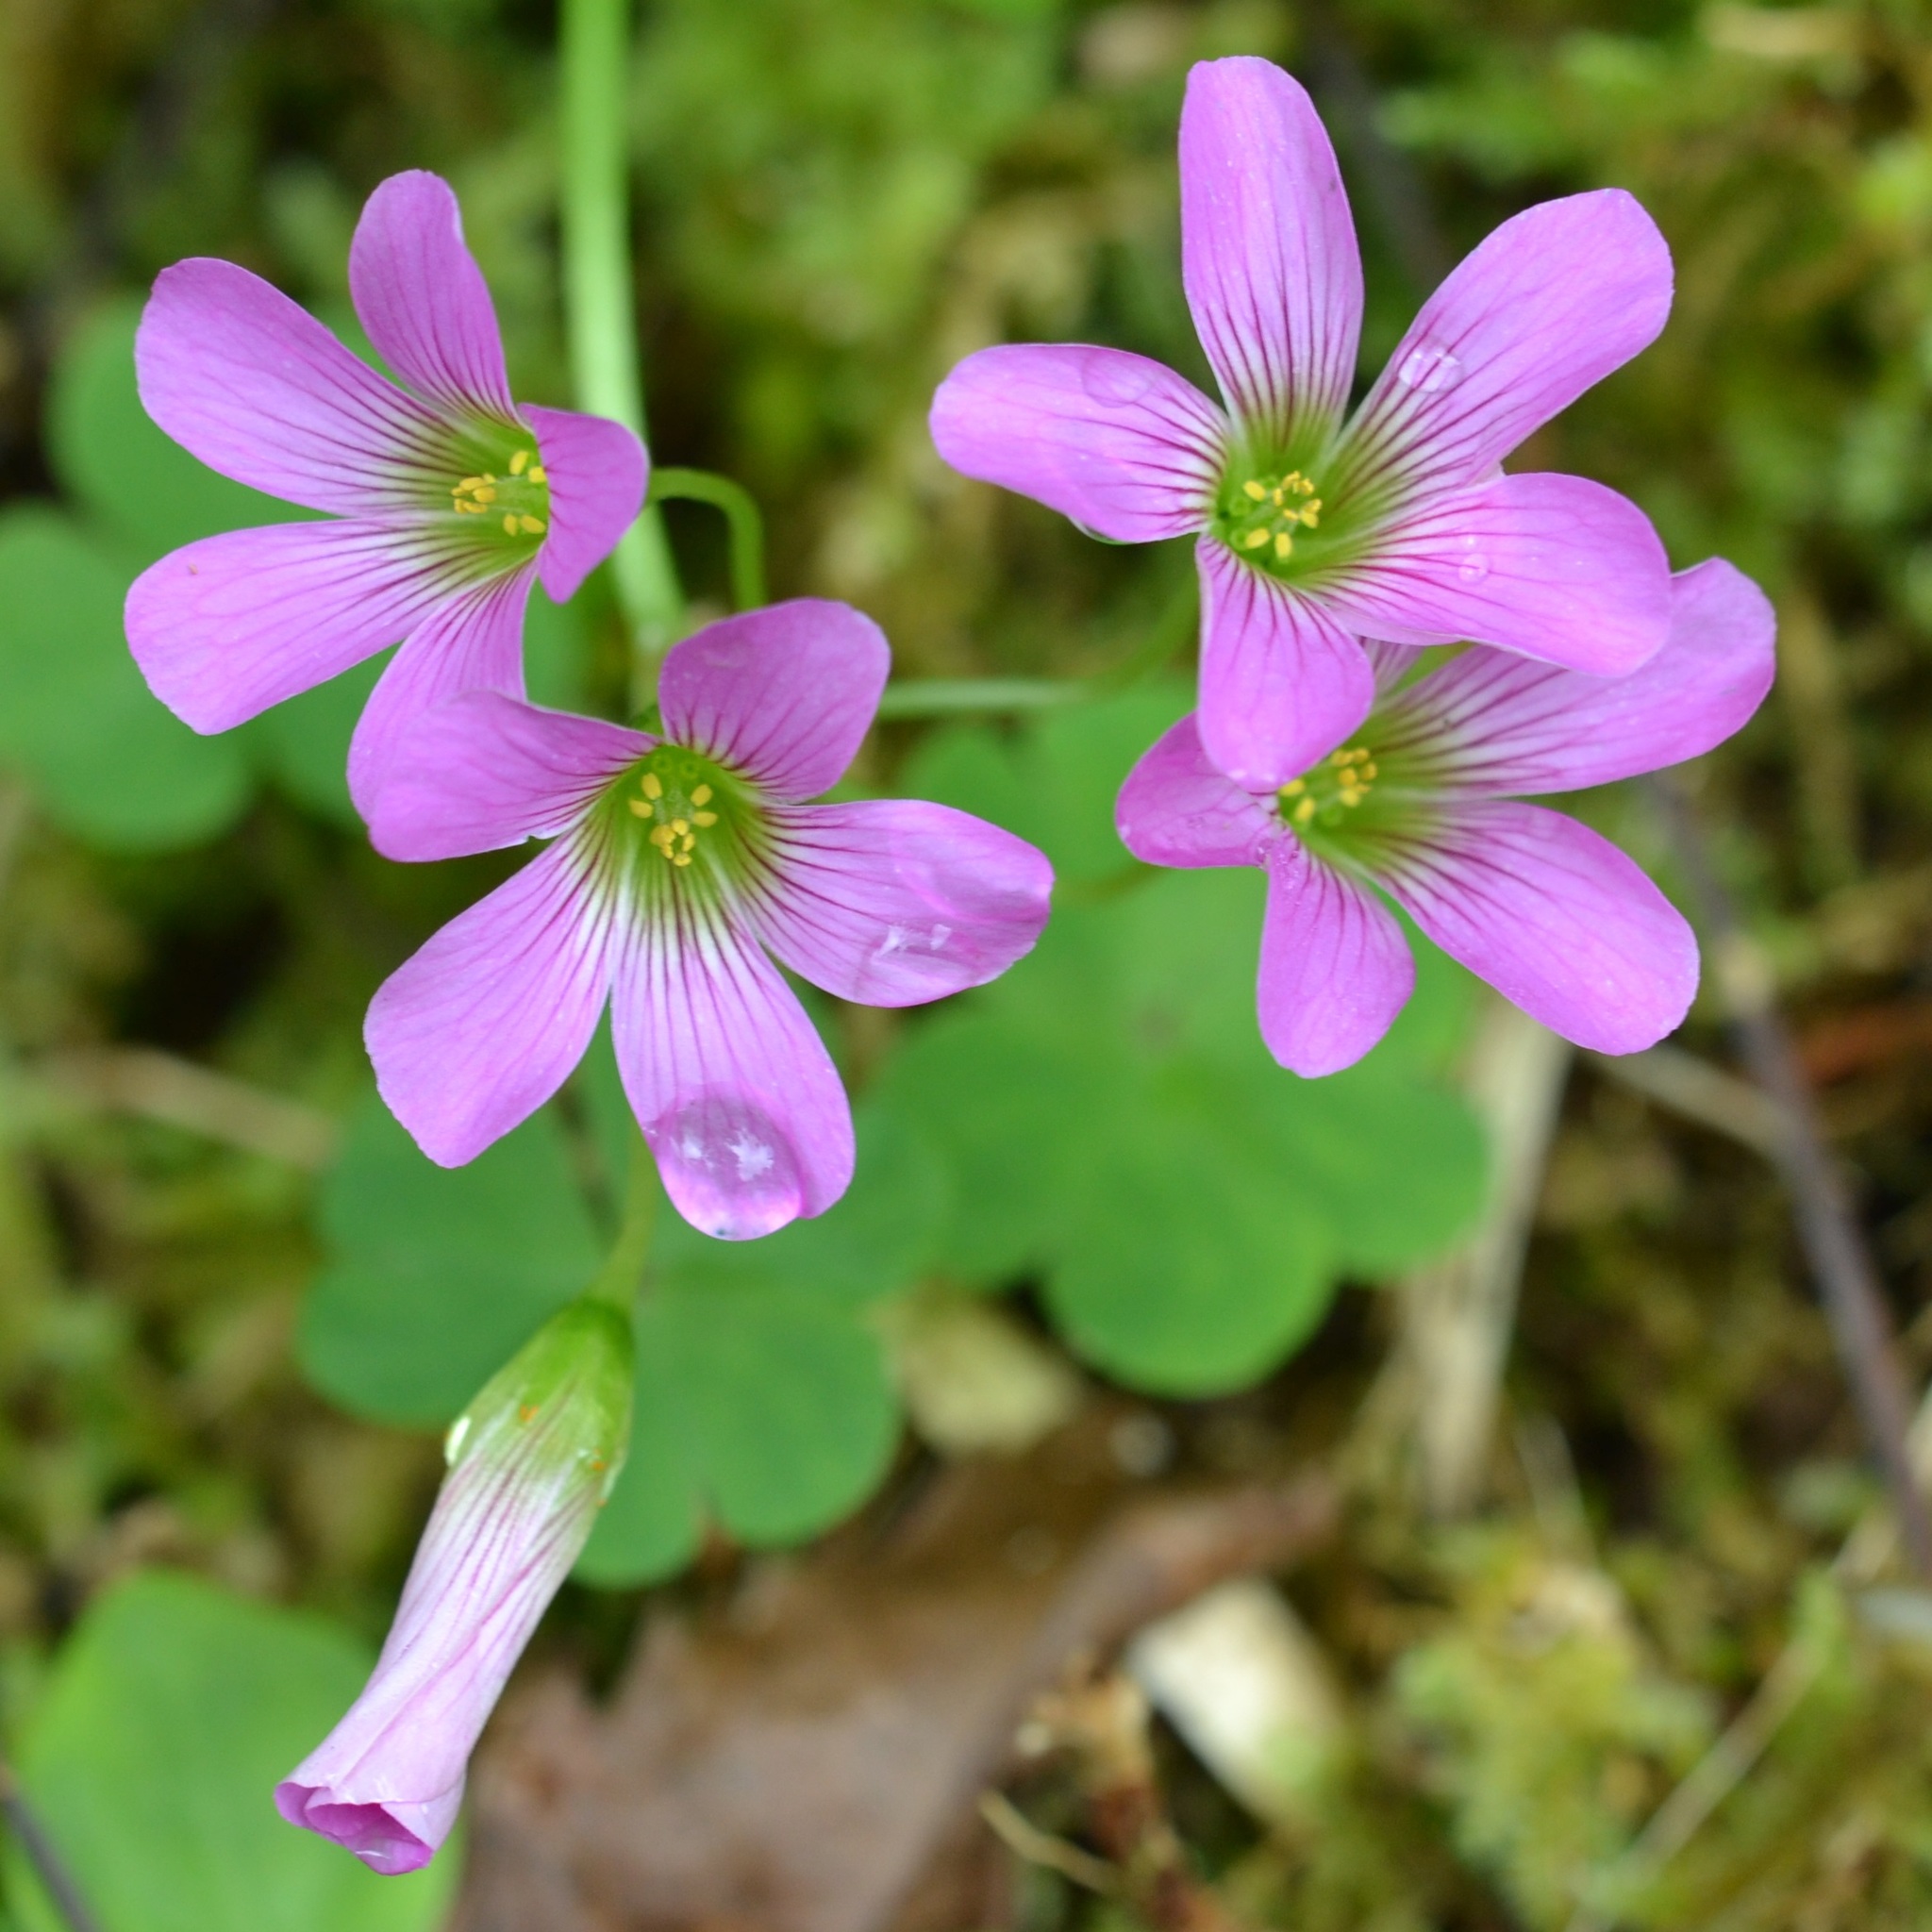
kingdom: Plantae
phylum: Tracheophyta
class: Magnoliopsida
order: Oxalidales
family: Oxalidaceae
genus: Oxalis
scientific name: Oxalis debilis
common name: Large-flowered pink-sorrel
